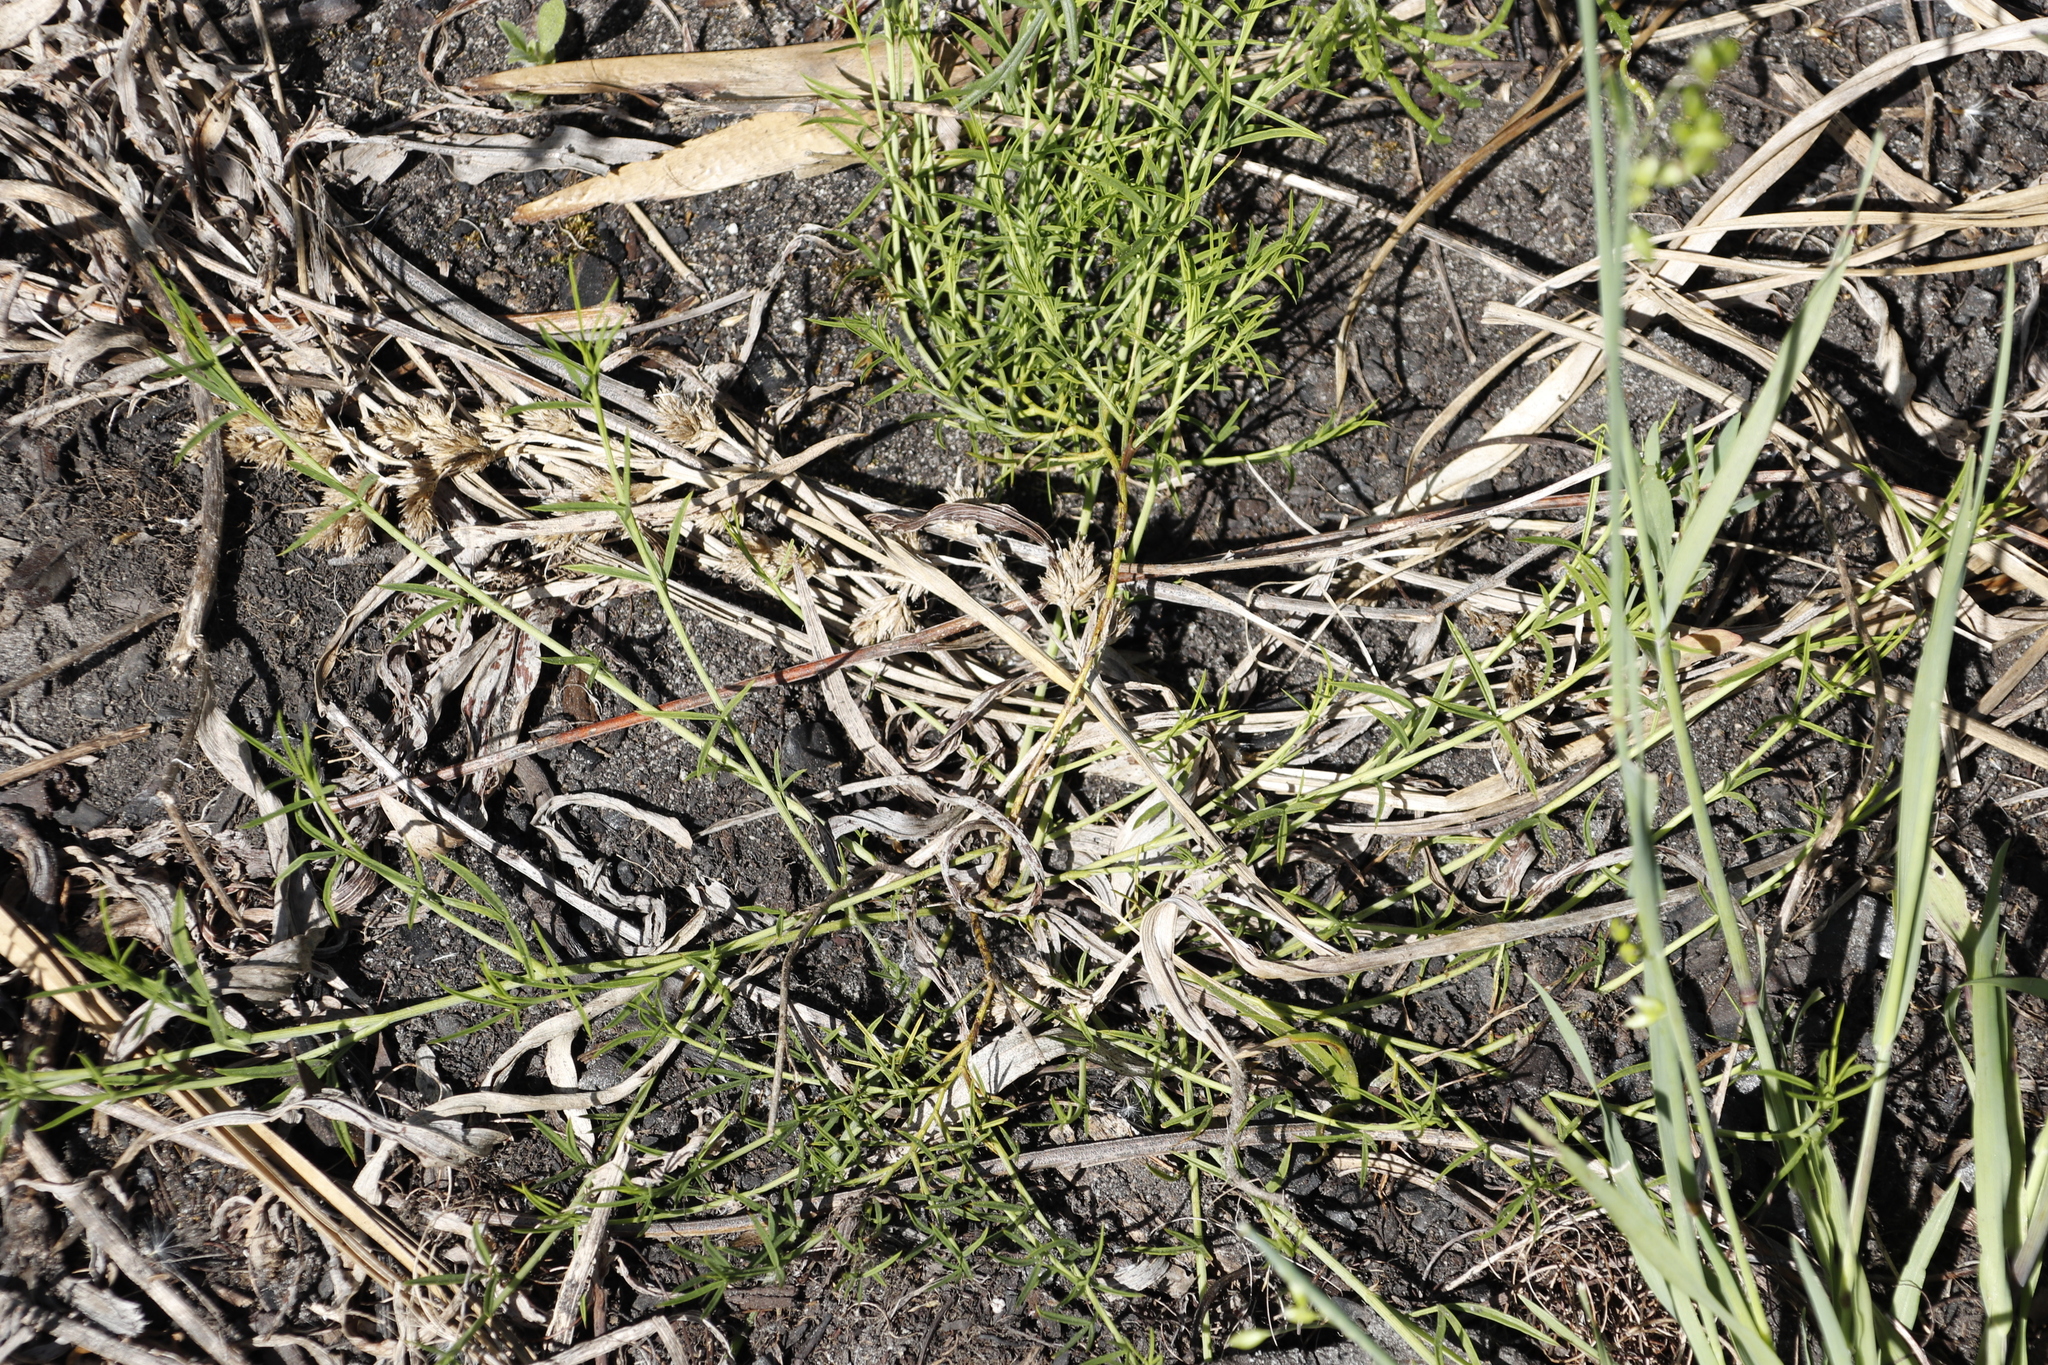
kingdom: Plantae
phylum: Tracheophyta
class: Magnoliopsida
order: Fabales
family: Fabaceae
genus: Psoralea
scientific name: Psoralea fascicularis
